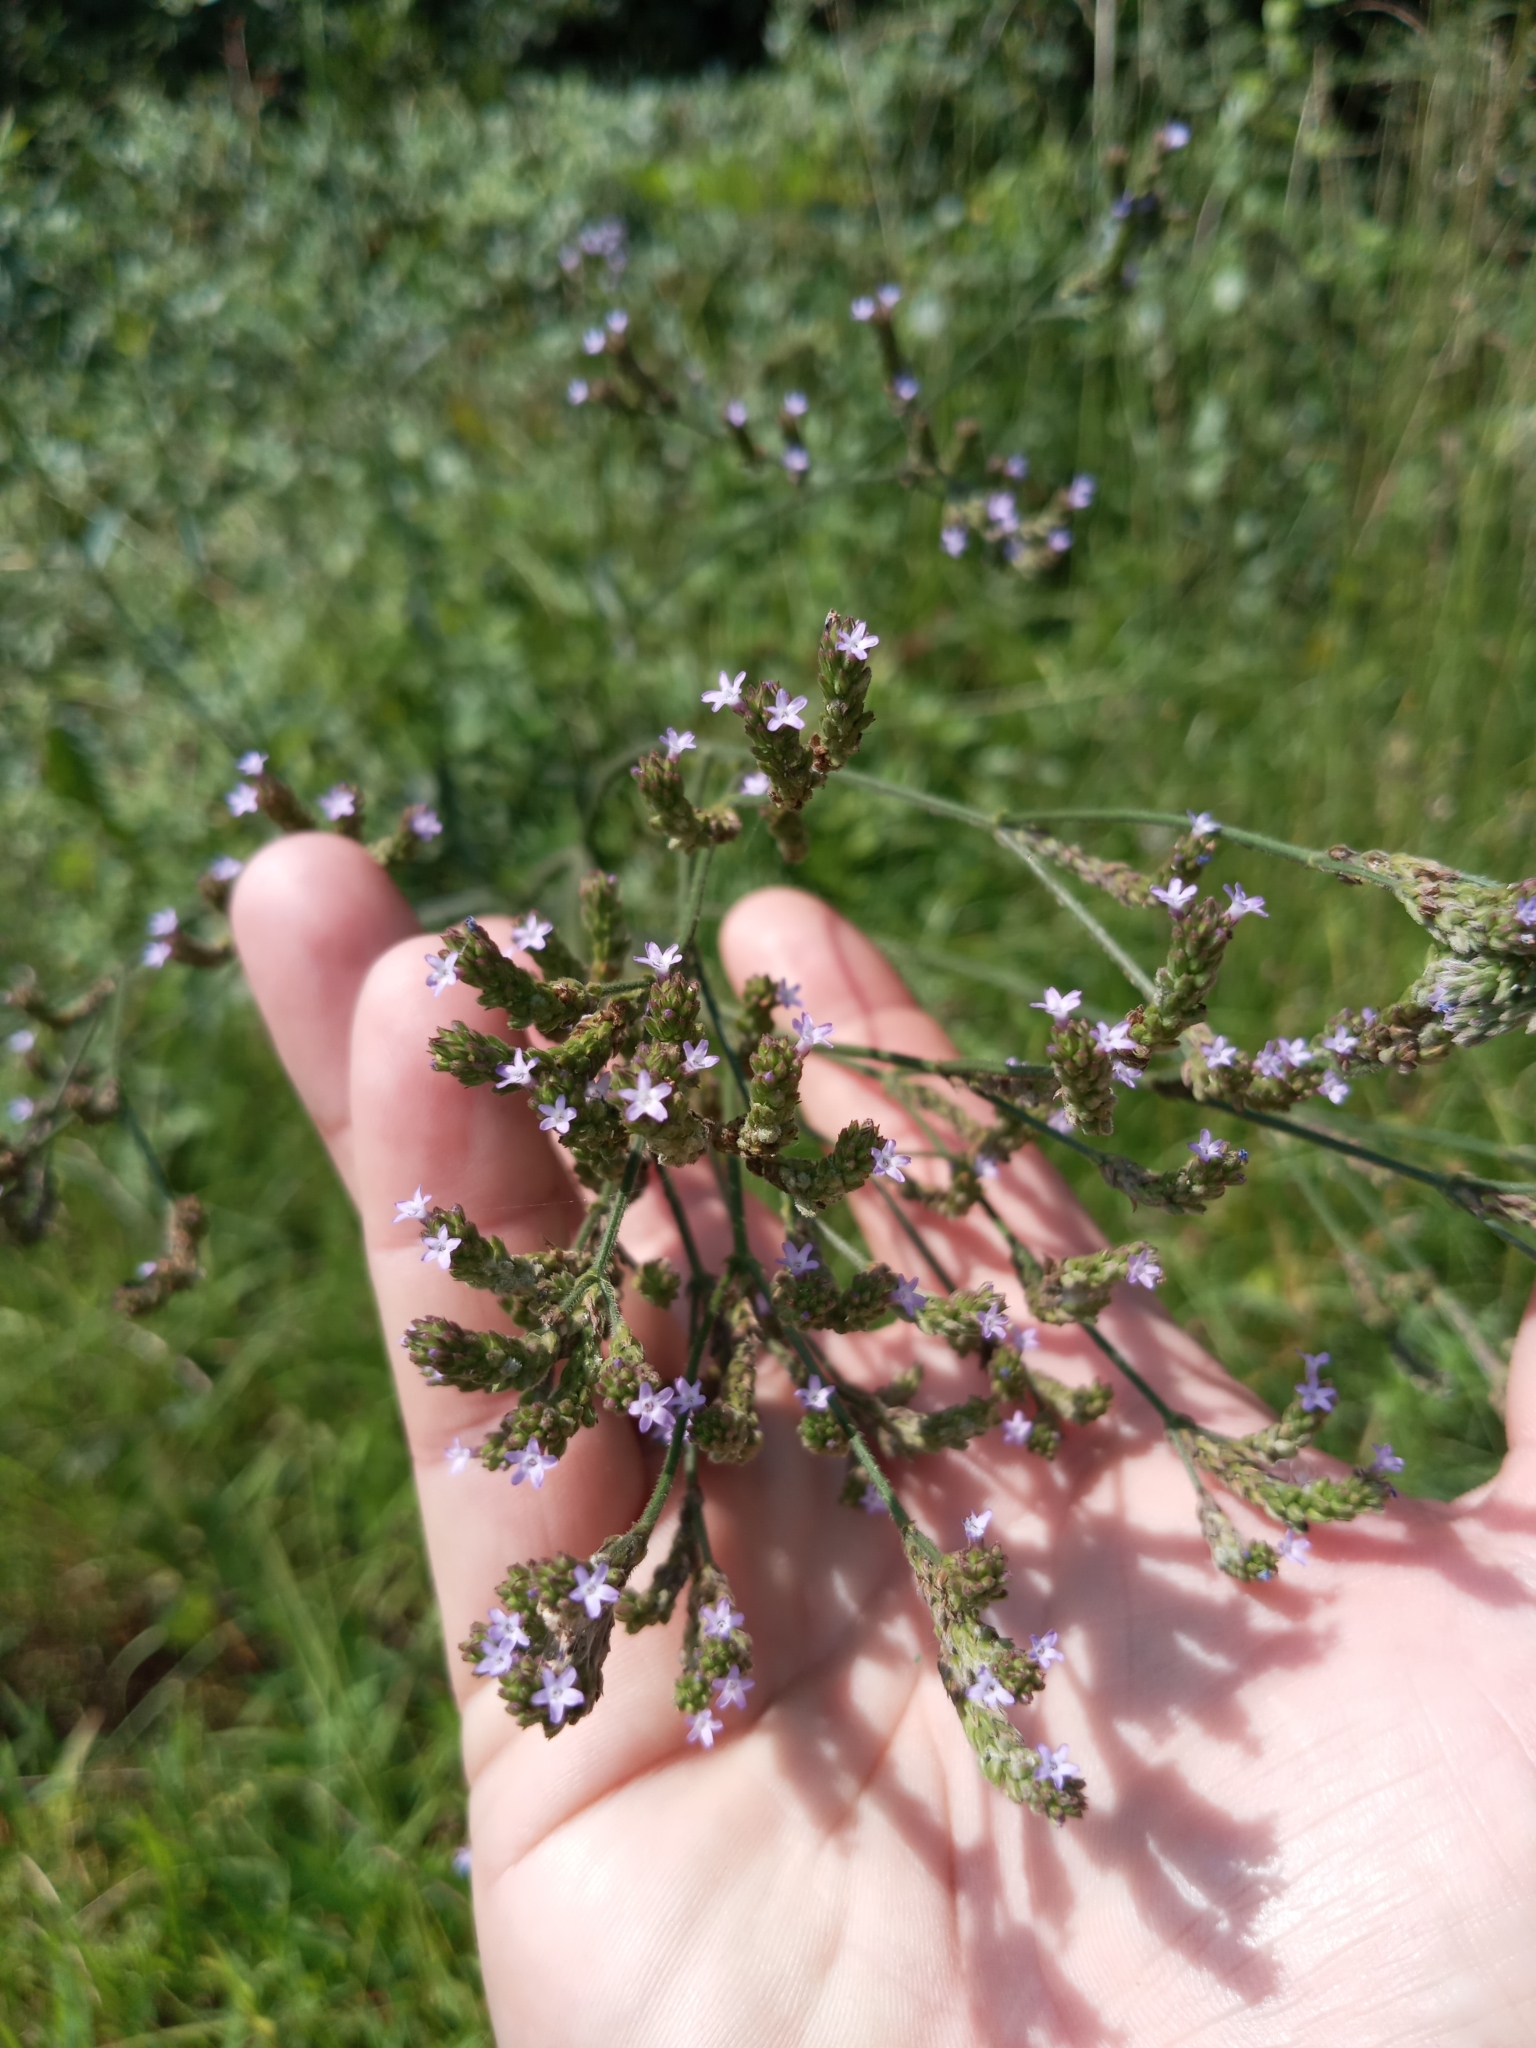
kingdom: Plantae
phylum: Tracheophyta
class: Magnoliopsida
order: Lamiales
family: Verbenaceae
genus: Verbena
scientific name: Verbena brasiliensis
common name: Brazilian vervain
